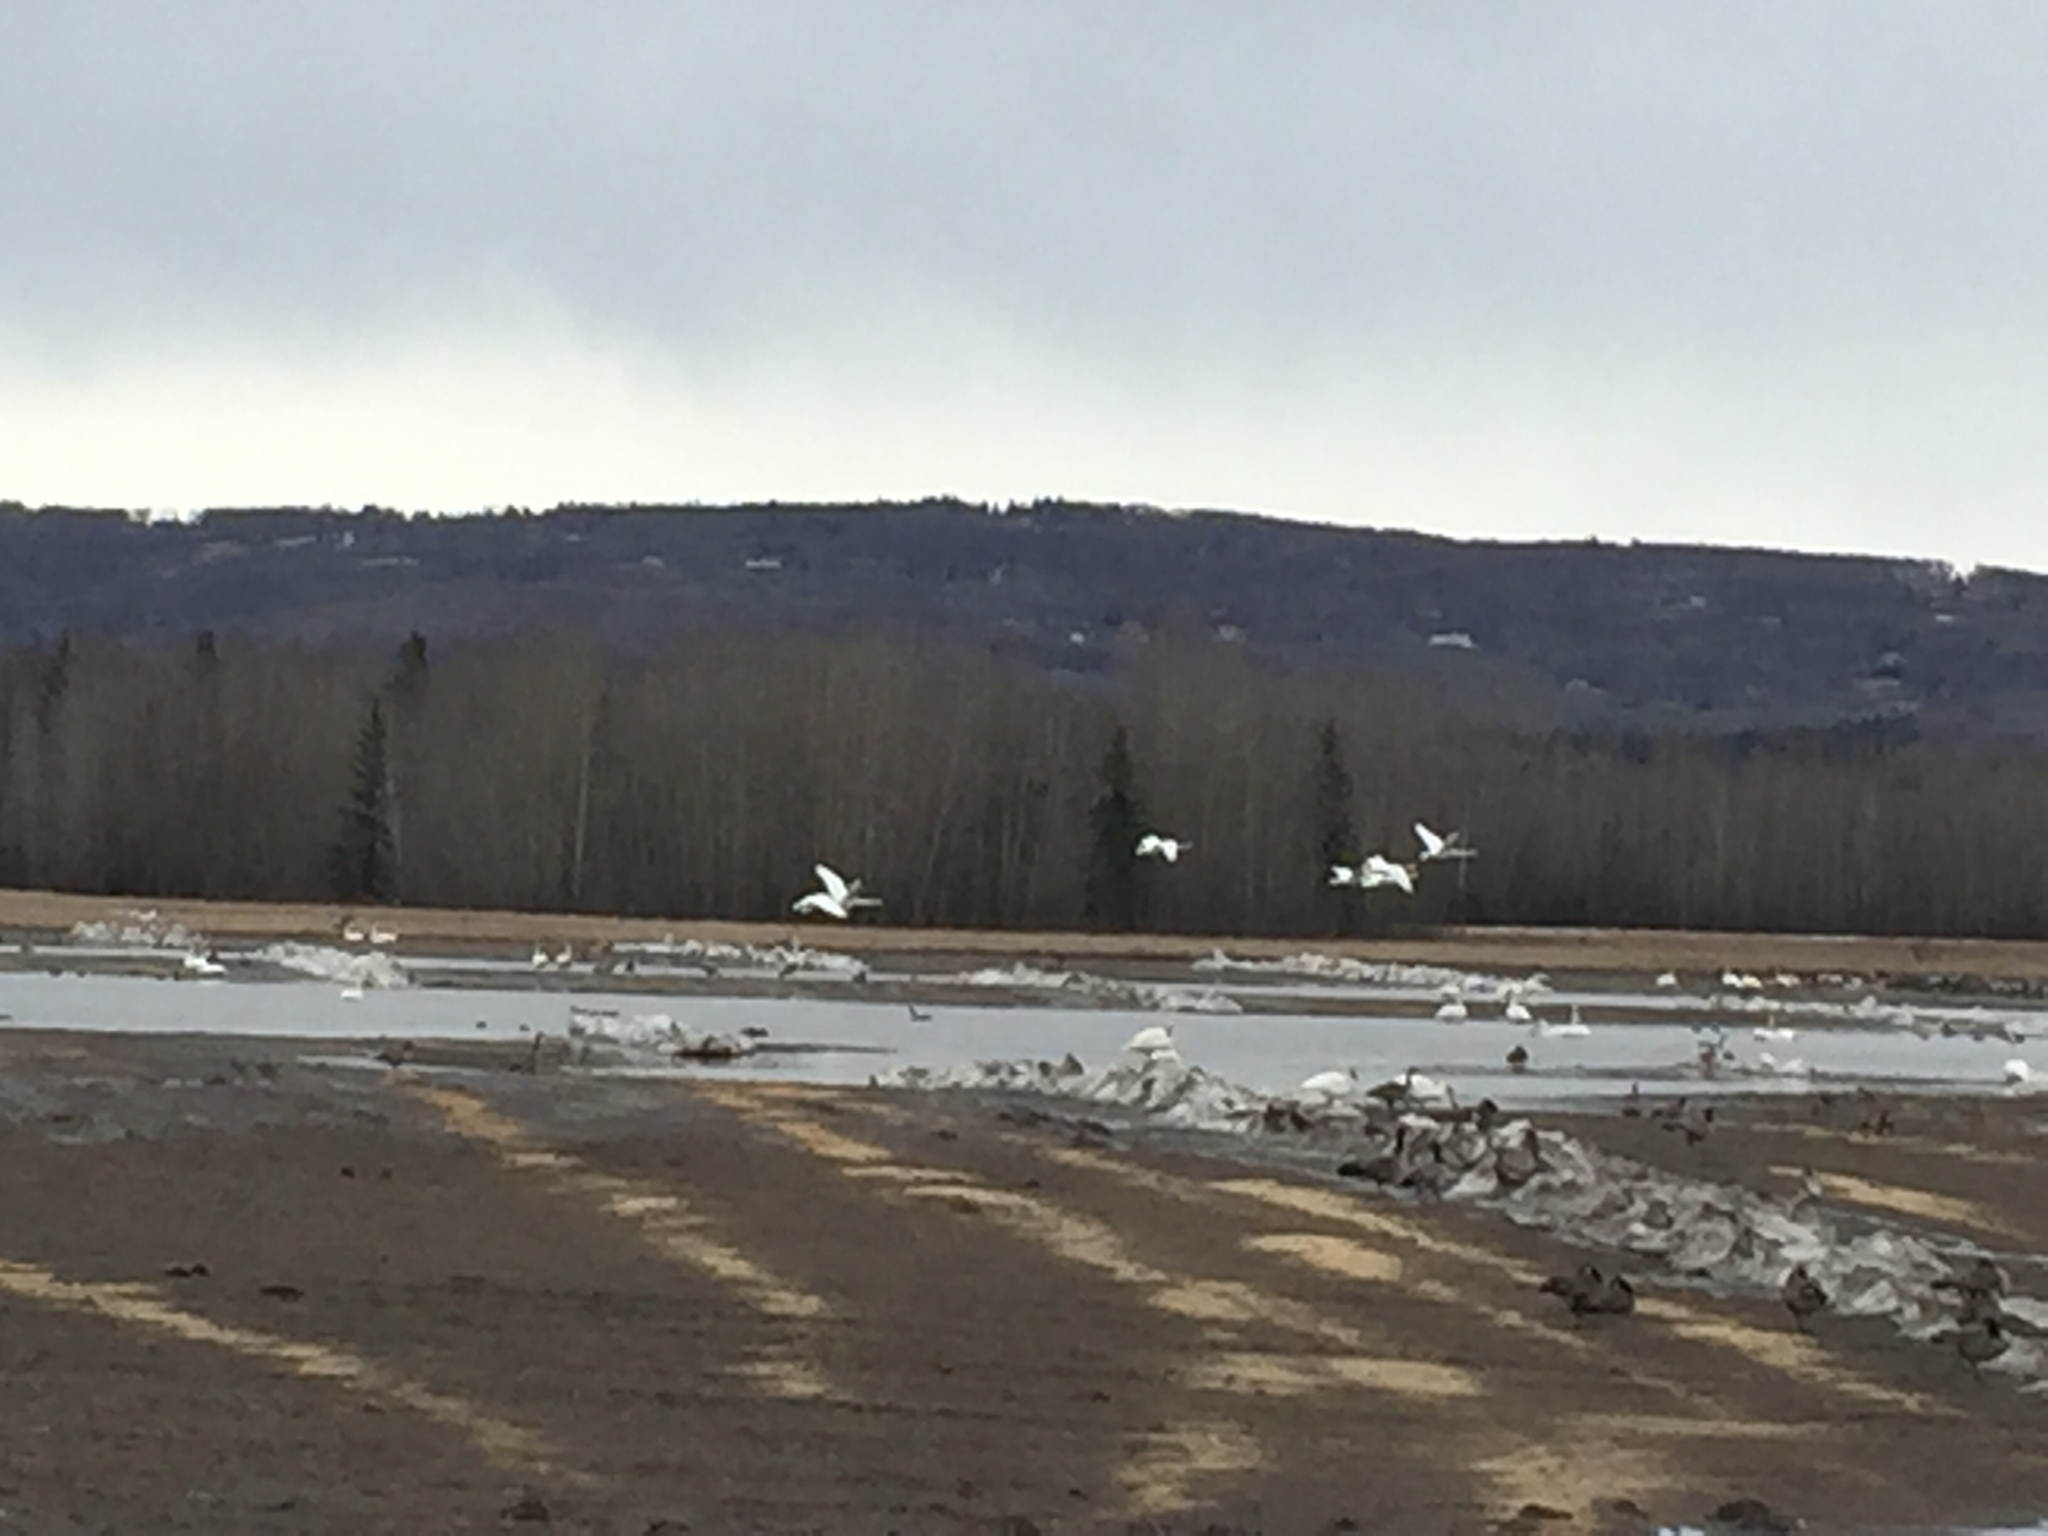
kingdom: Animalia
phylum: Chordata
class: Aves
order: Anseriformes
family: Anatidae
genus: Cygnus
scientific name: Cygnus buccinator
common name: Trumpeter swan
